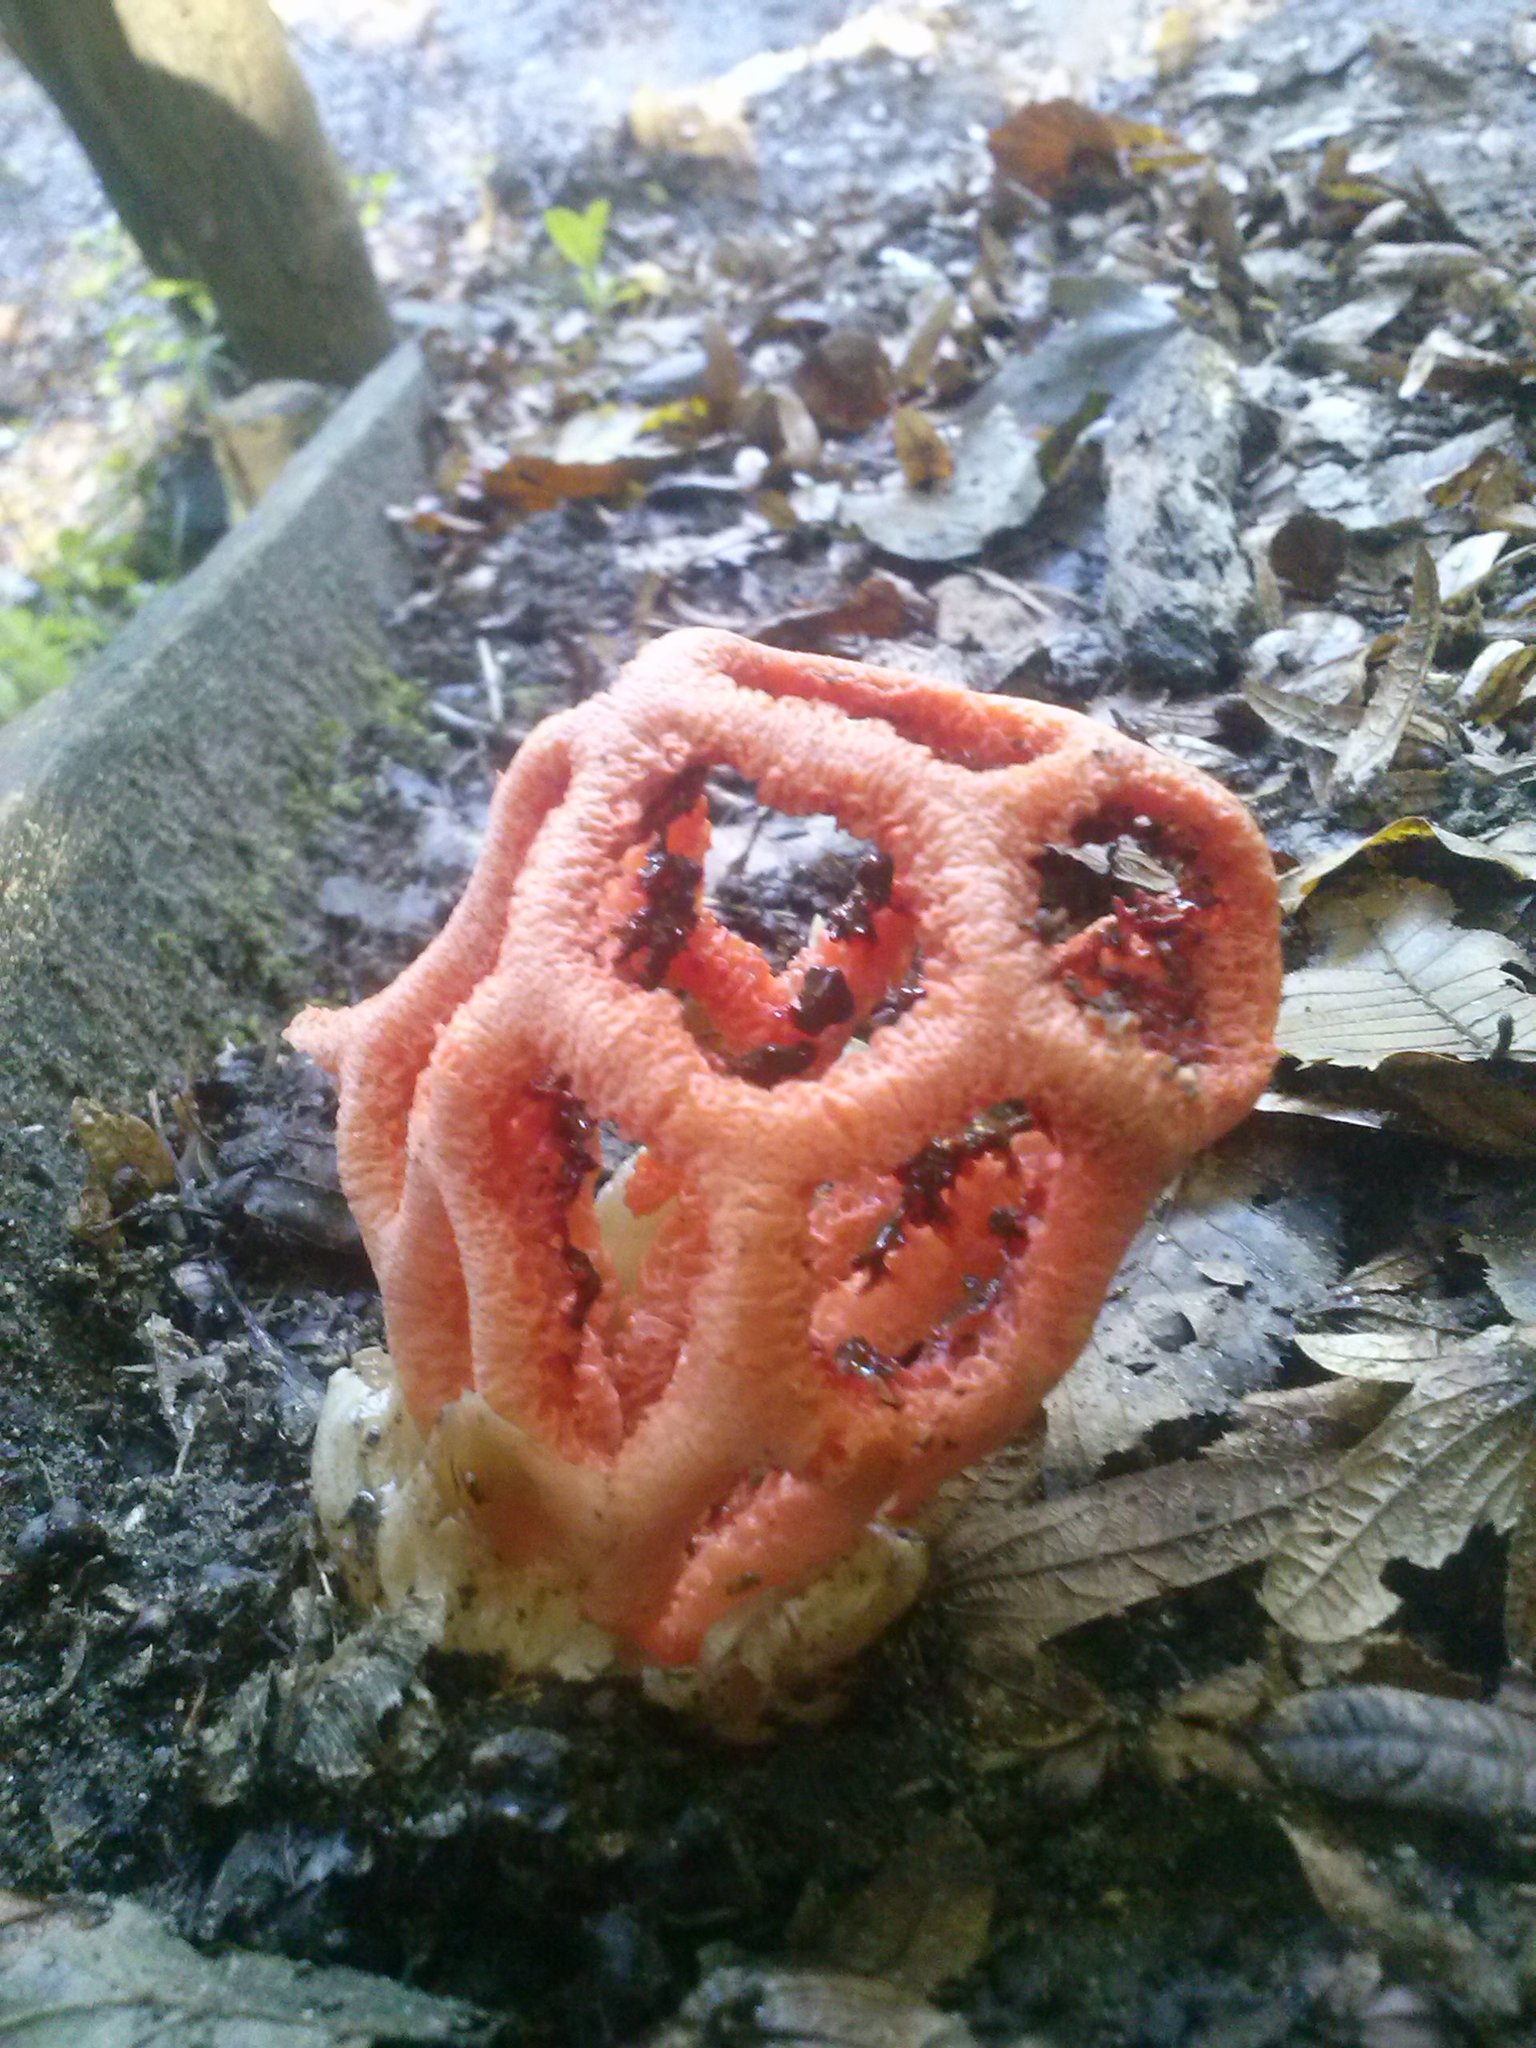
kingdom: Fungi
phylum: Basidiomycota
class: Agaricomycetes
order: Phallales
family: Phallaceae
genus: Clathrus
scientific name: Clathrus ruber
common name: Red cage
